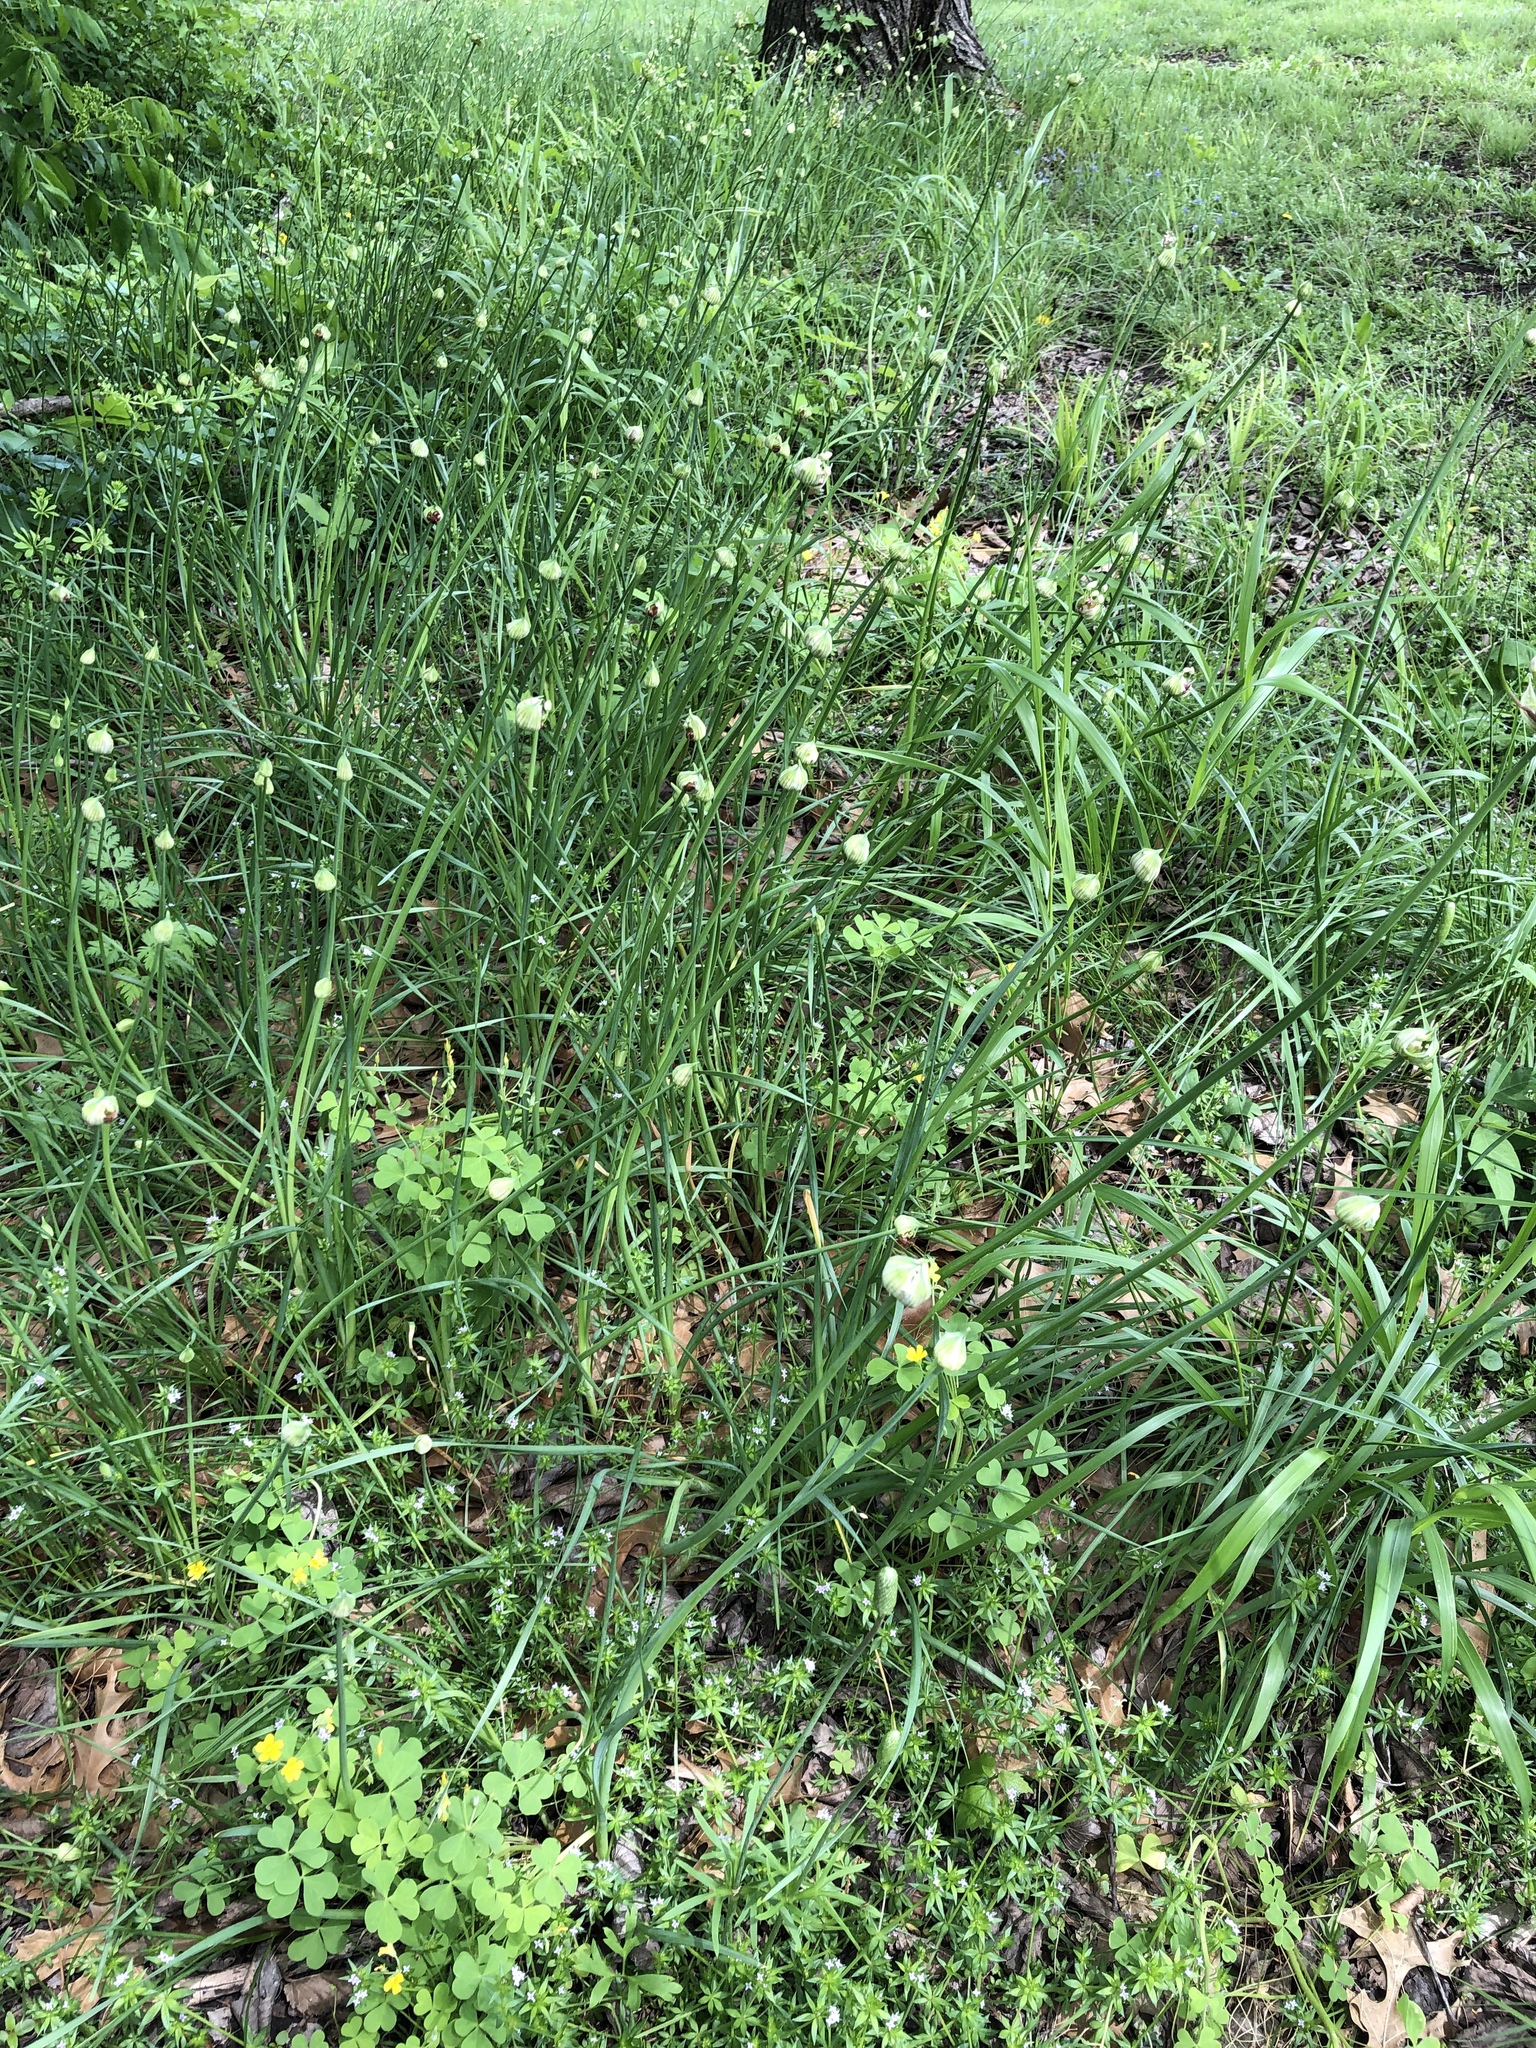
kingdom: Plantae
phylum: Tracheophyta
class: Liliopsida
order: Asparagales
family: Amaryllidaceae
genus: Allium
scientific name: Allium canadense
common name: Meadow garlic
